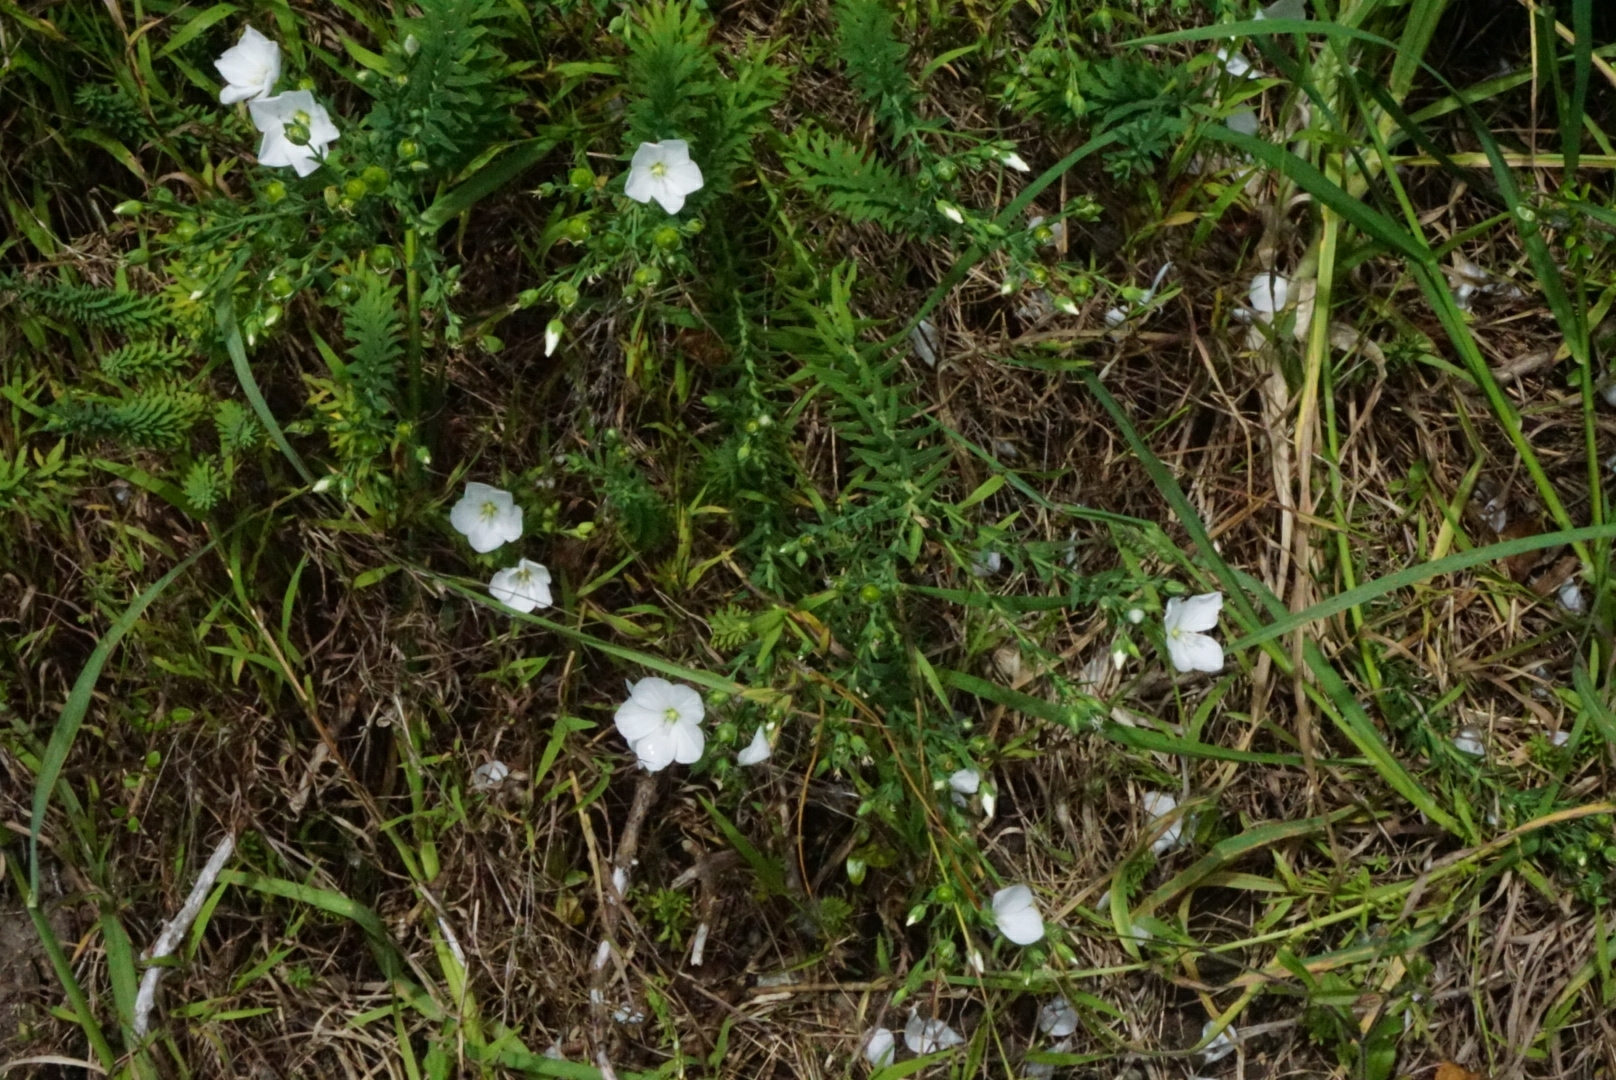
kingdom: Plantae
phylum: Tracheophyta
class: Magnoliopsida
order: Malpighiales
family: Linaceae
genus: Linum
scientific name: Linum monogynum
